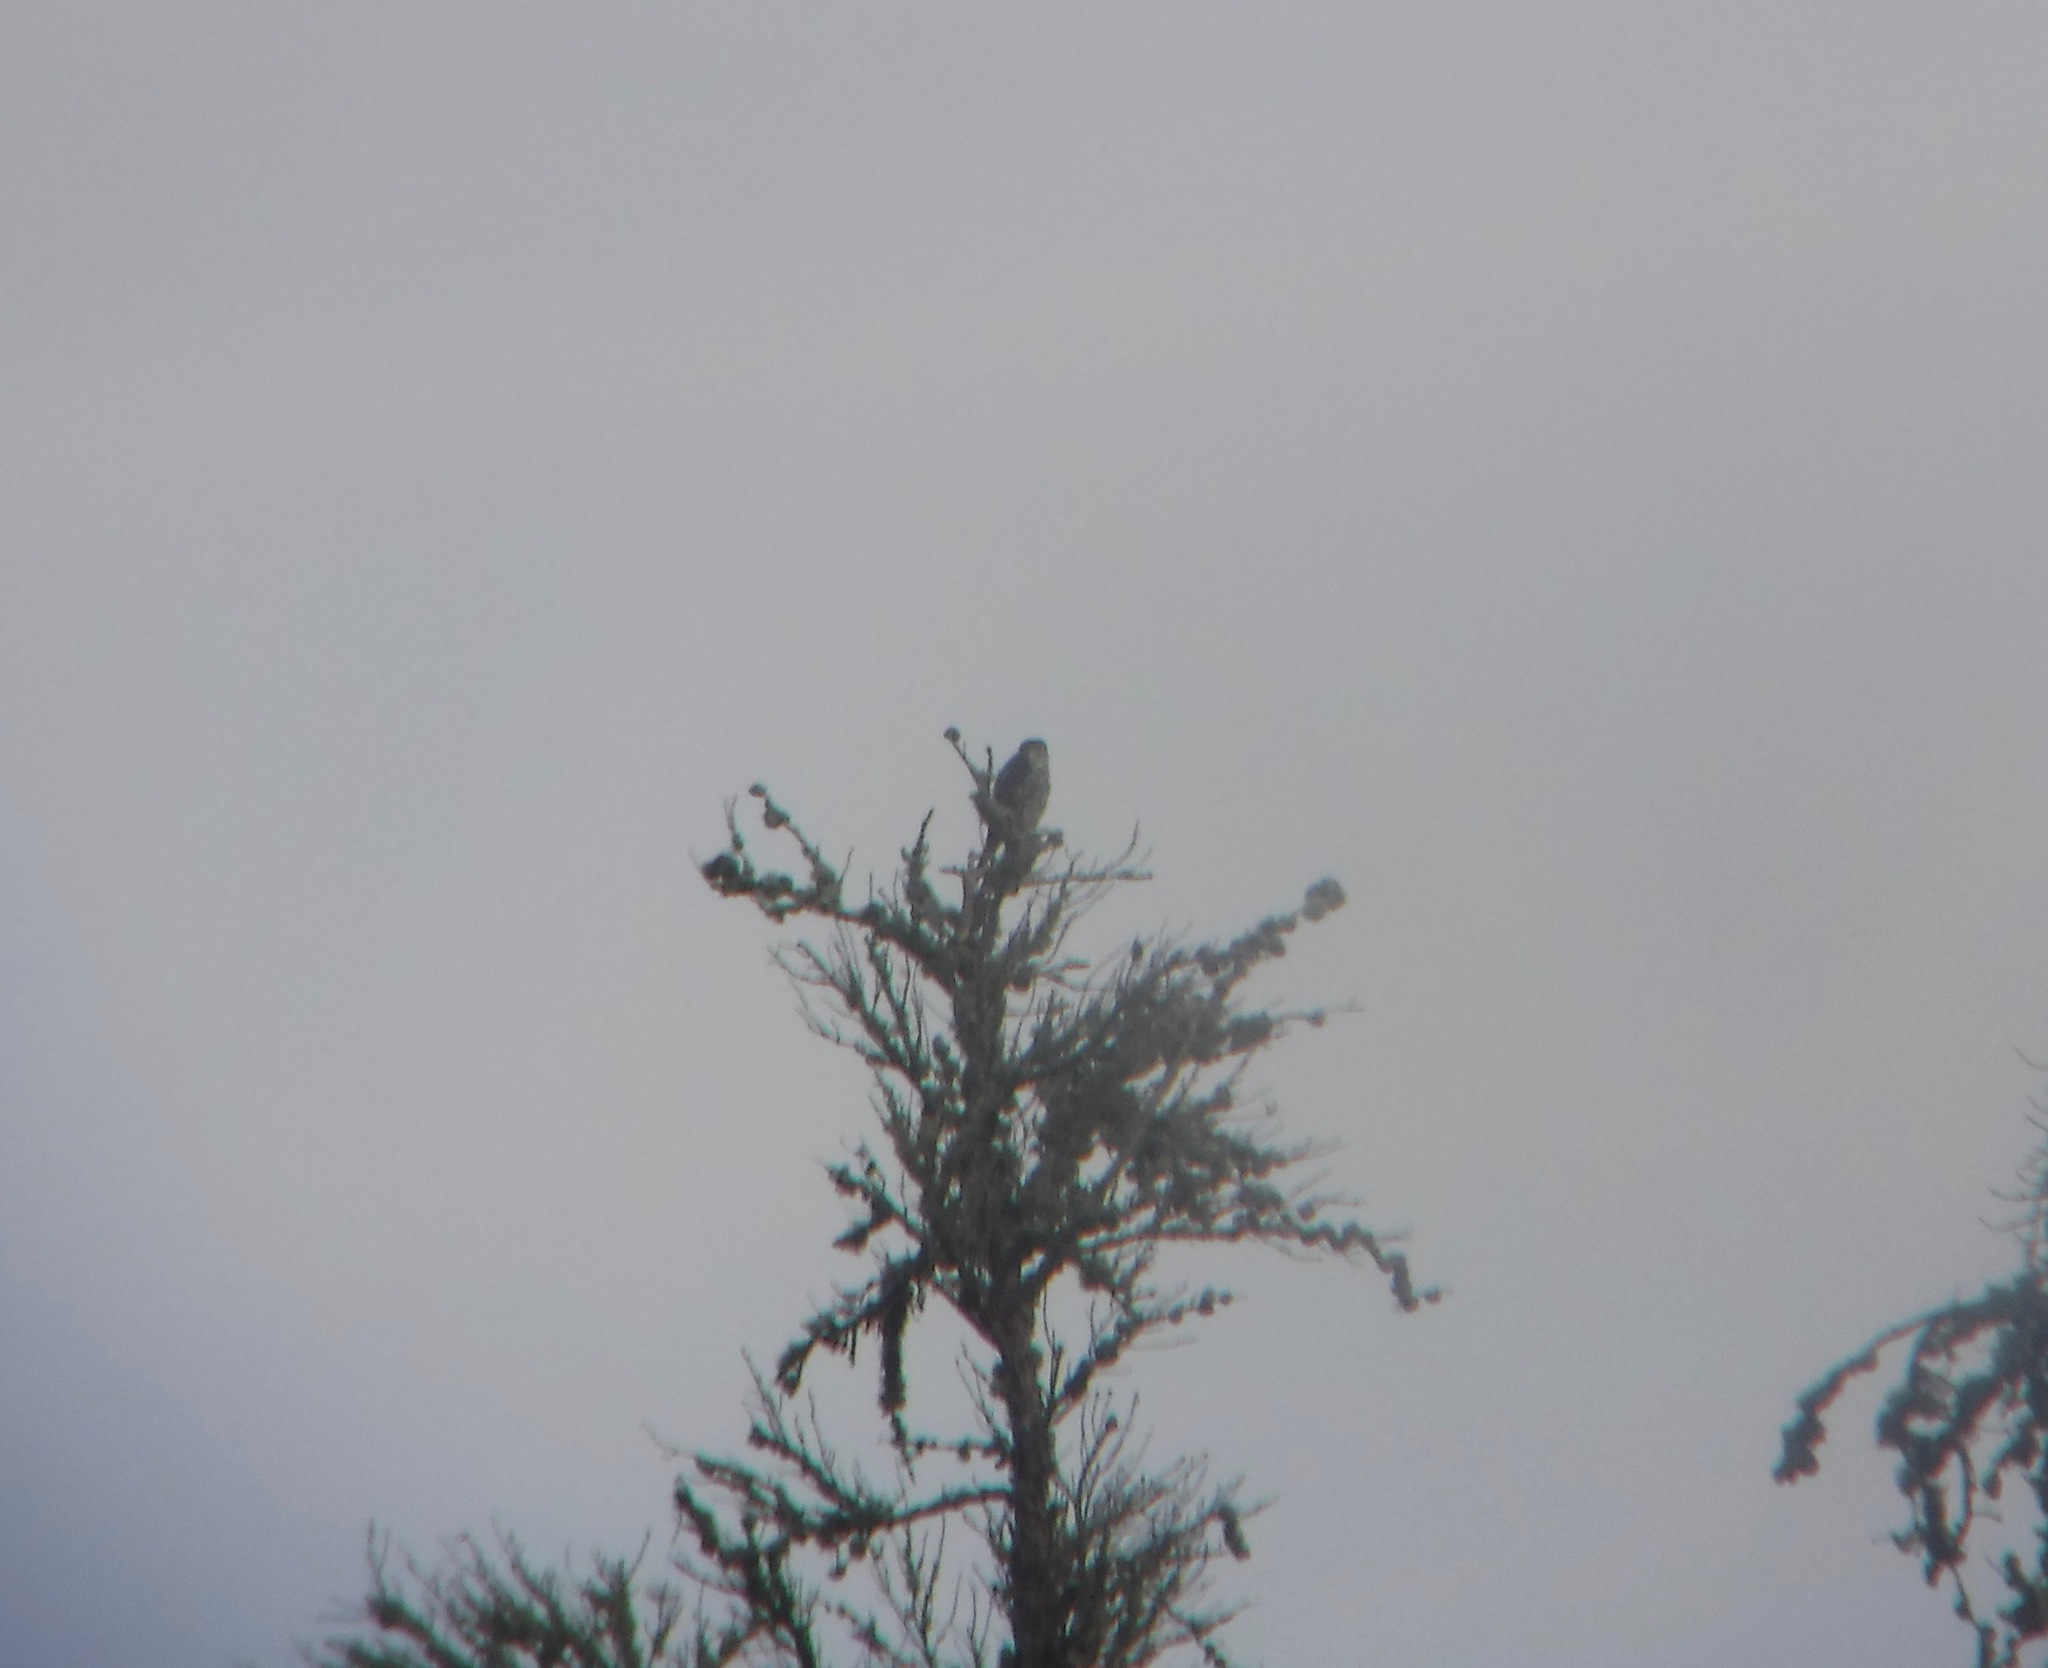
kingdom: Animalia
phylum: Chordata
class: Aves
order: Falconiformes
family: Falconidae
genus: Falco
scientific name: Falco columbarius
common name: Merlin
